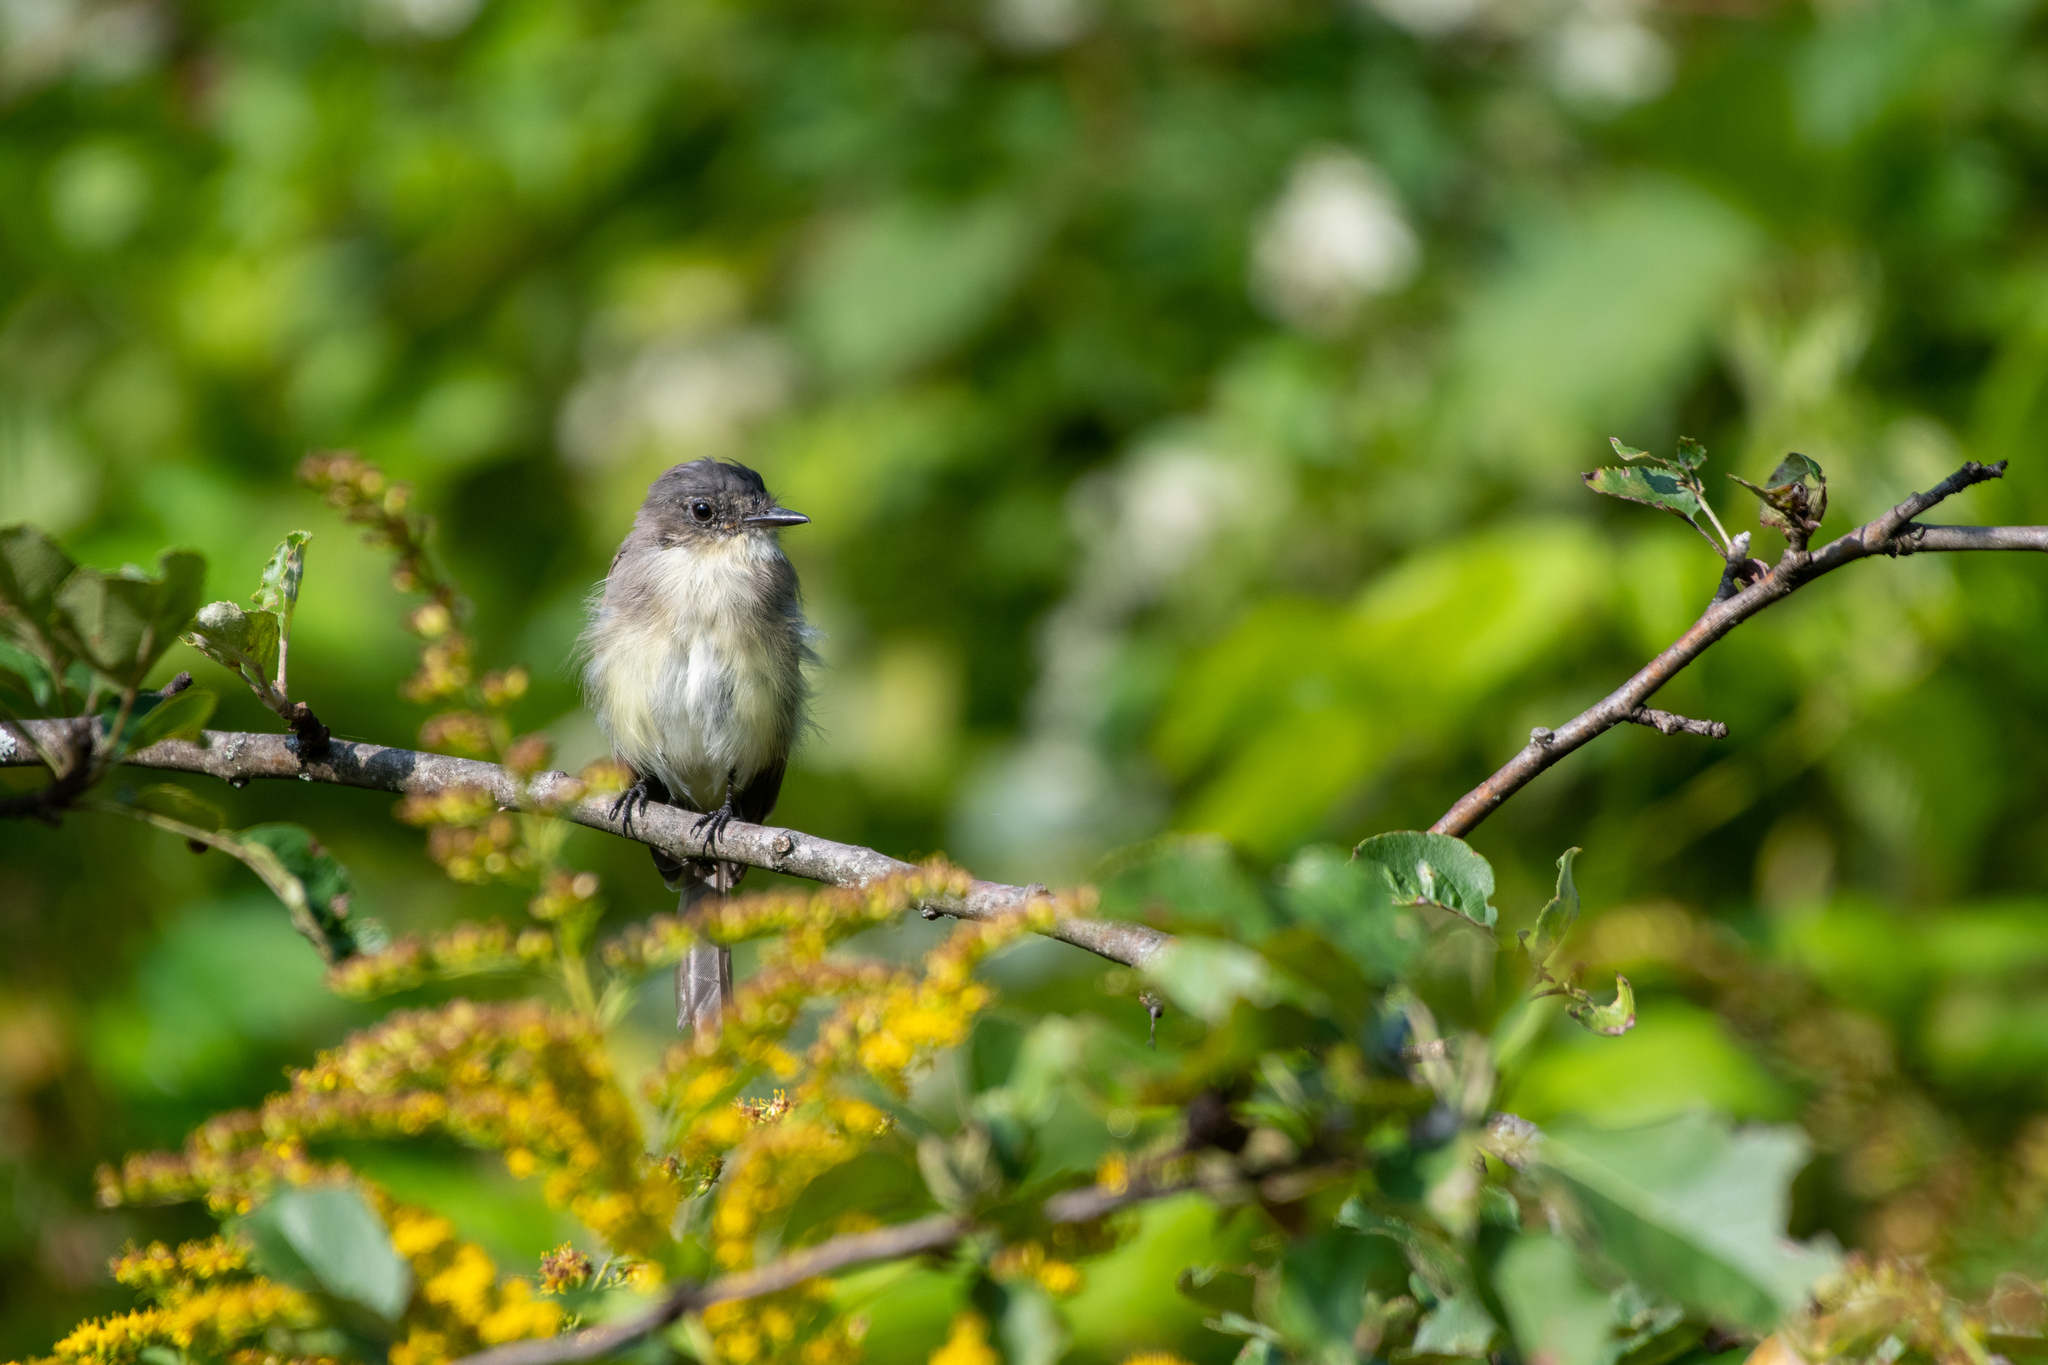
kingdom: Animalia
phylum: Chordata
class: Aves
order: Passeriformes
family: Tyrannidae
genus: Sayornis
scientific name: Sayornis phoebe
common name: Eastern phoebe
